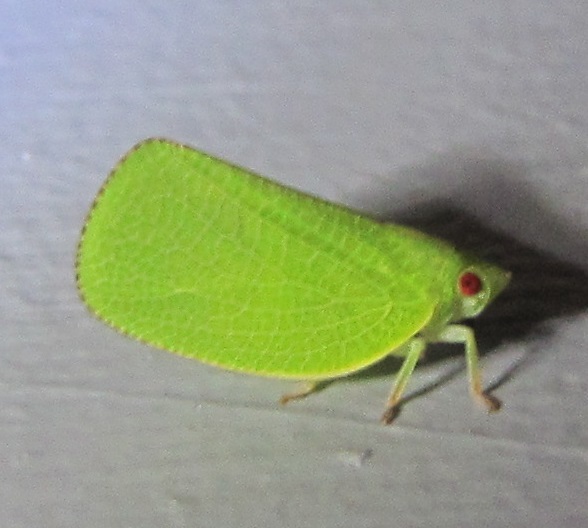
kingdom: Animalia
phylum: Arthropoda
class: Insecta
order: Hemiptera
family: Acanaloniidae
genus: Acanalonia
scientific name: Acanalonia conica
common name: Green cone-headed planthopper
